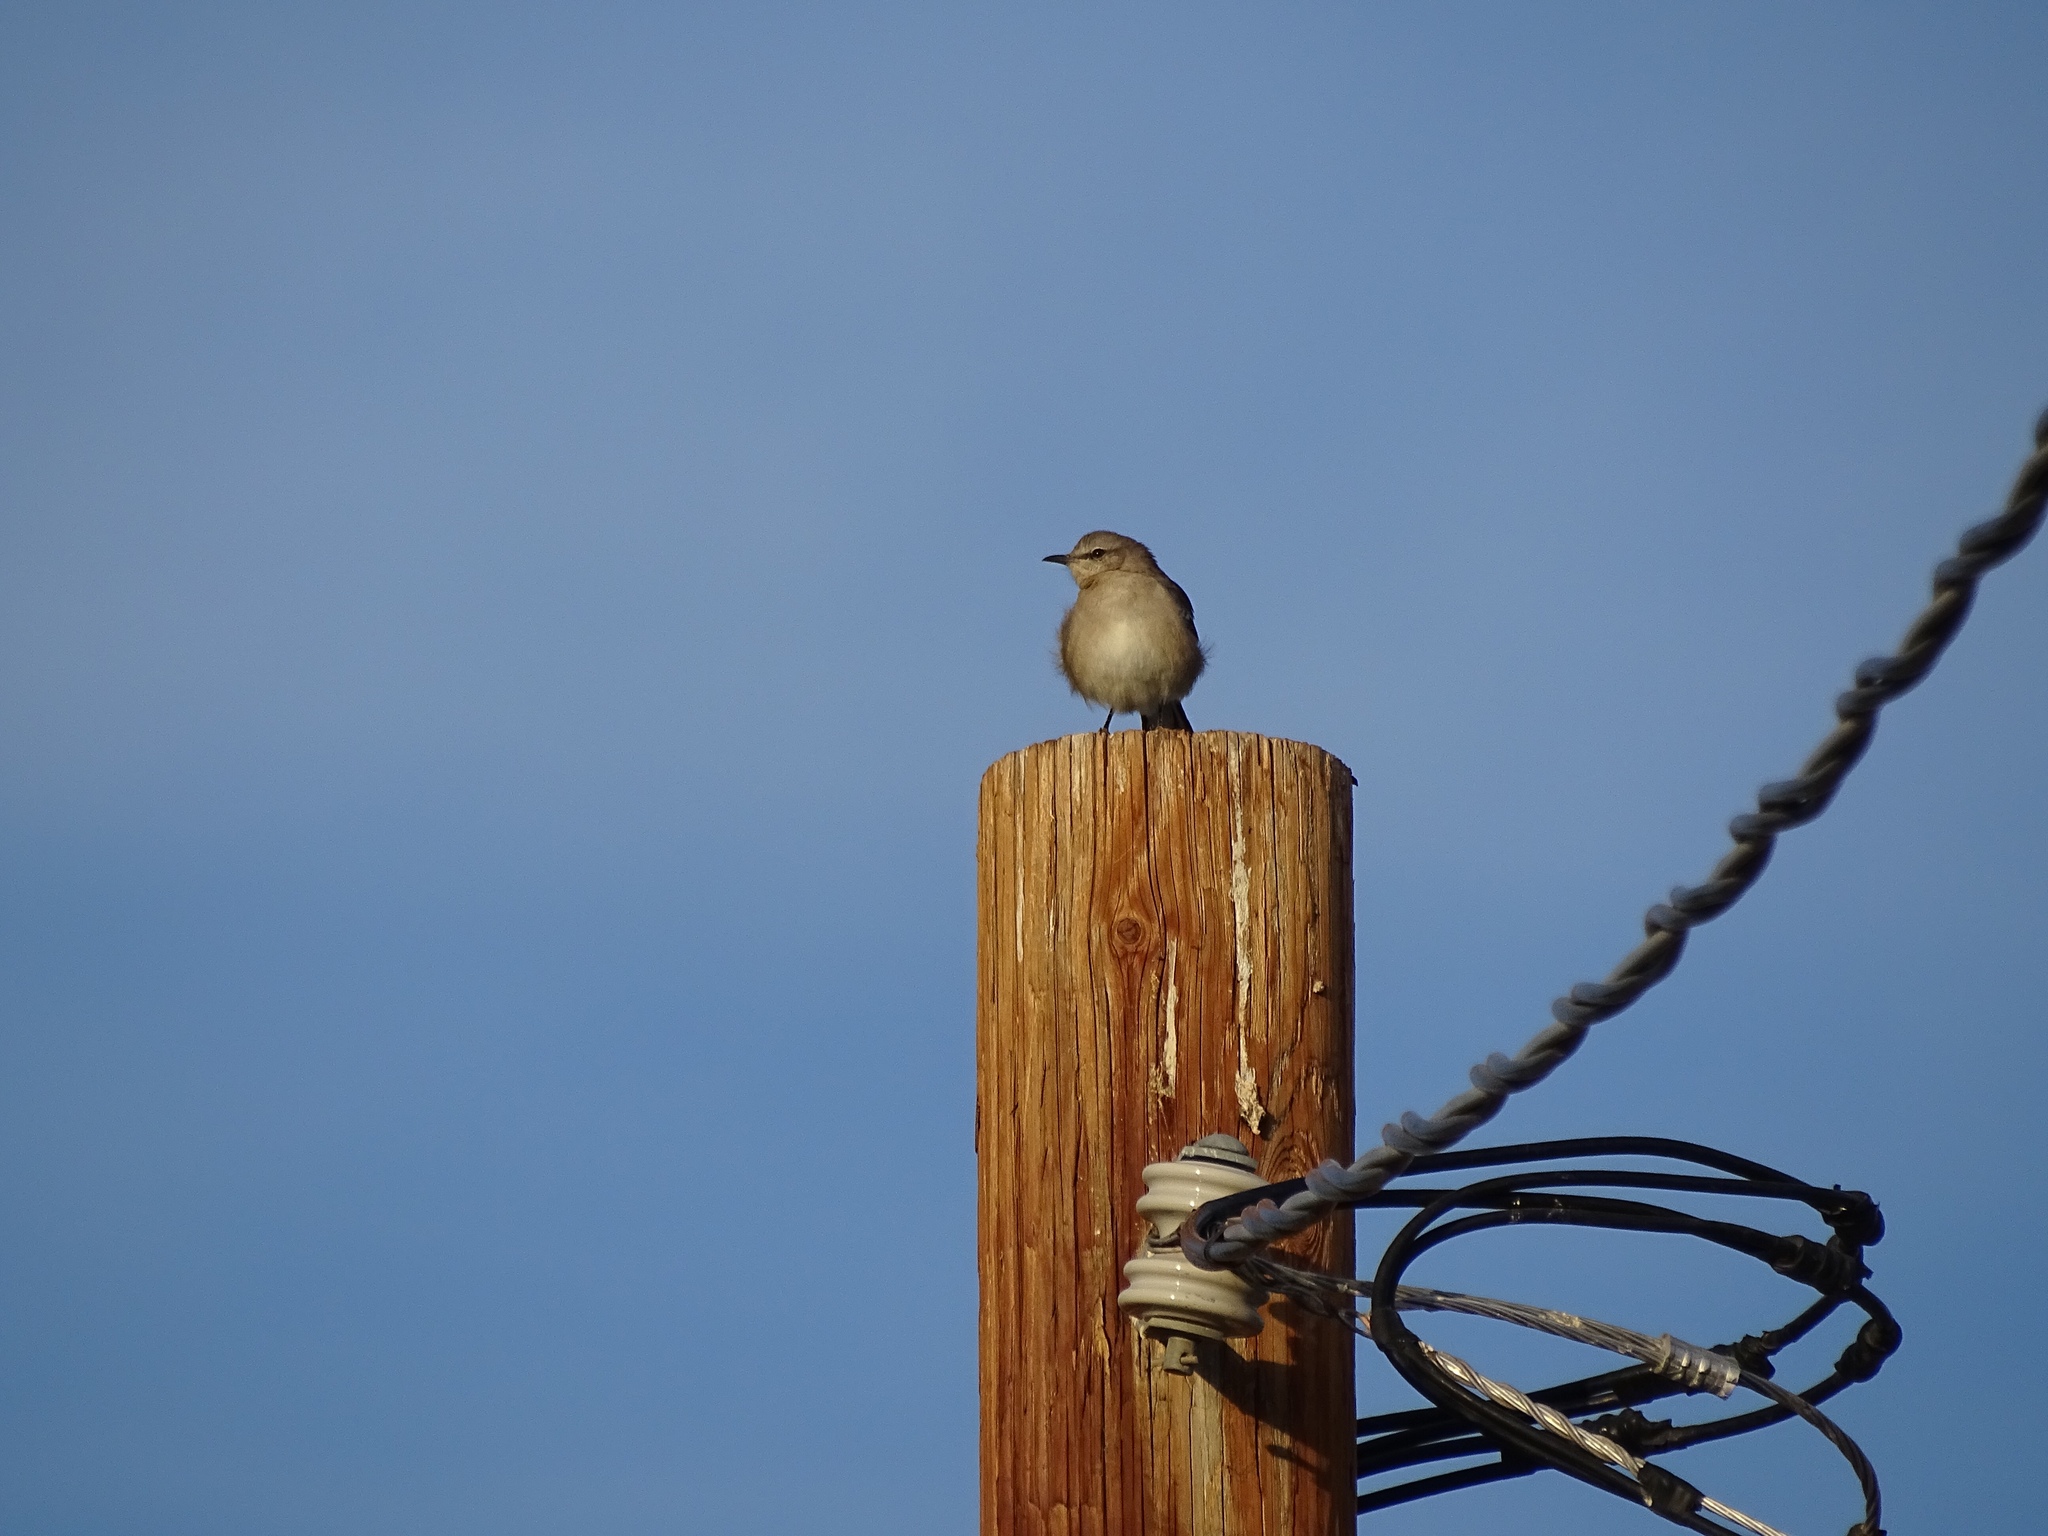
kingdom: Animalia
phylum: Chordata
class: Aves
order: Passeriformes
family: Mimidae
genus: Mimus
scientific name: Mimus polyglottos
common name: Northern mockingbird
